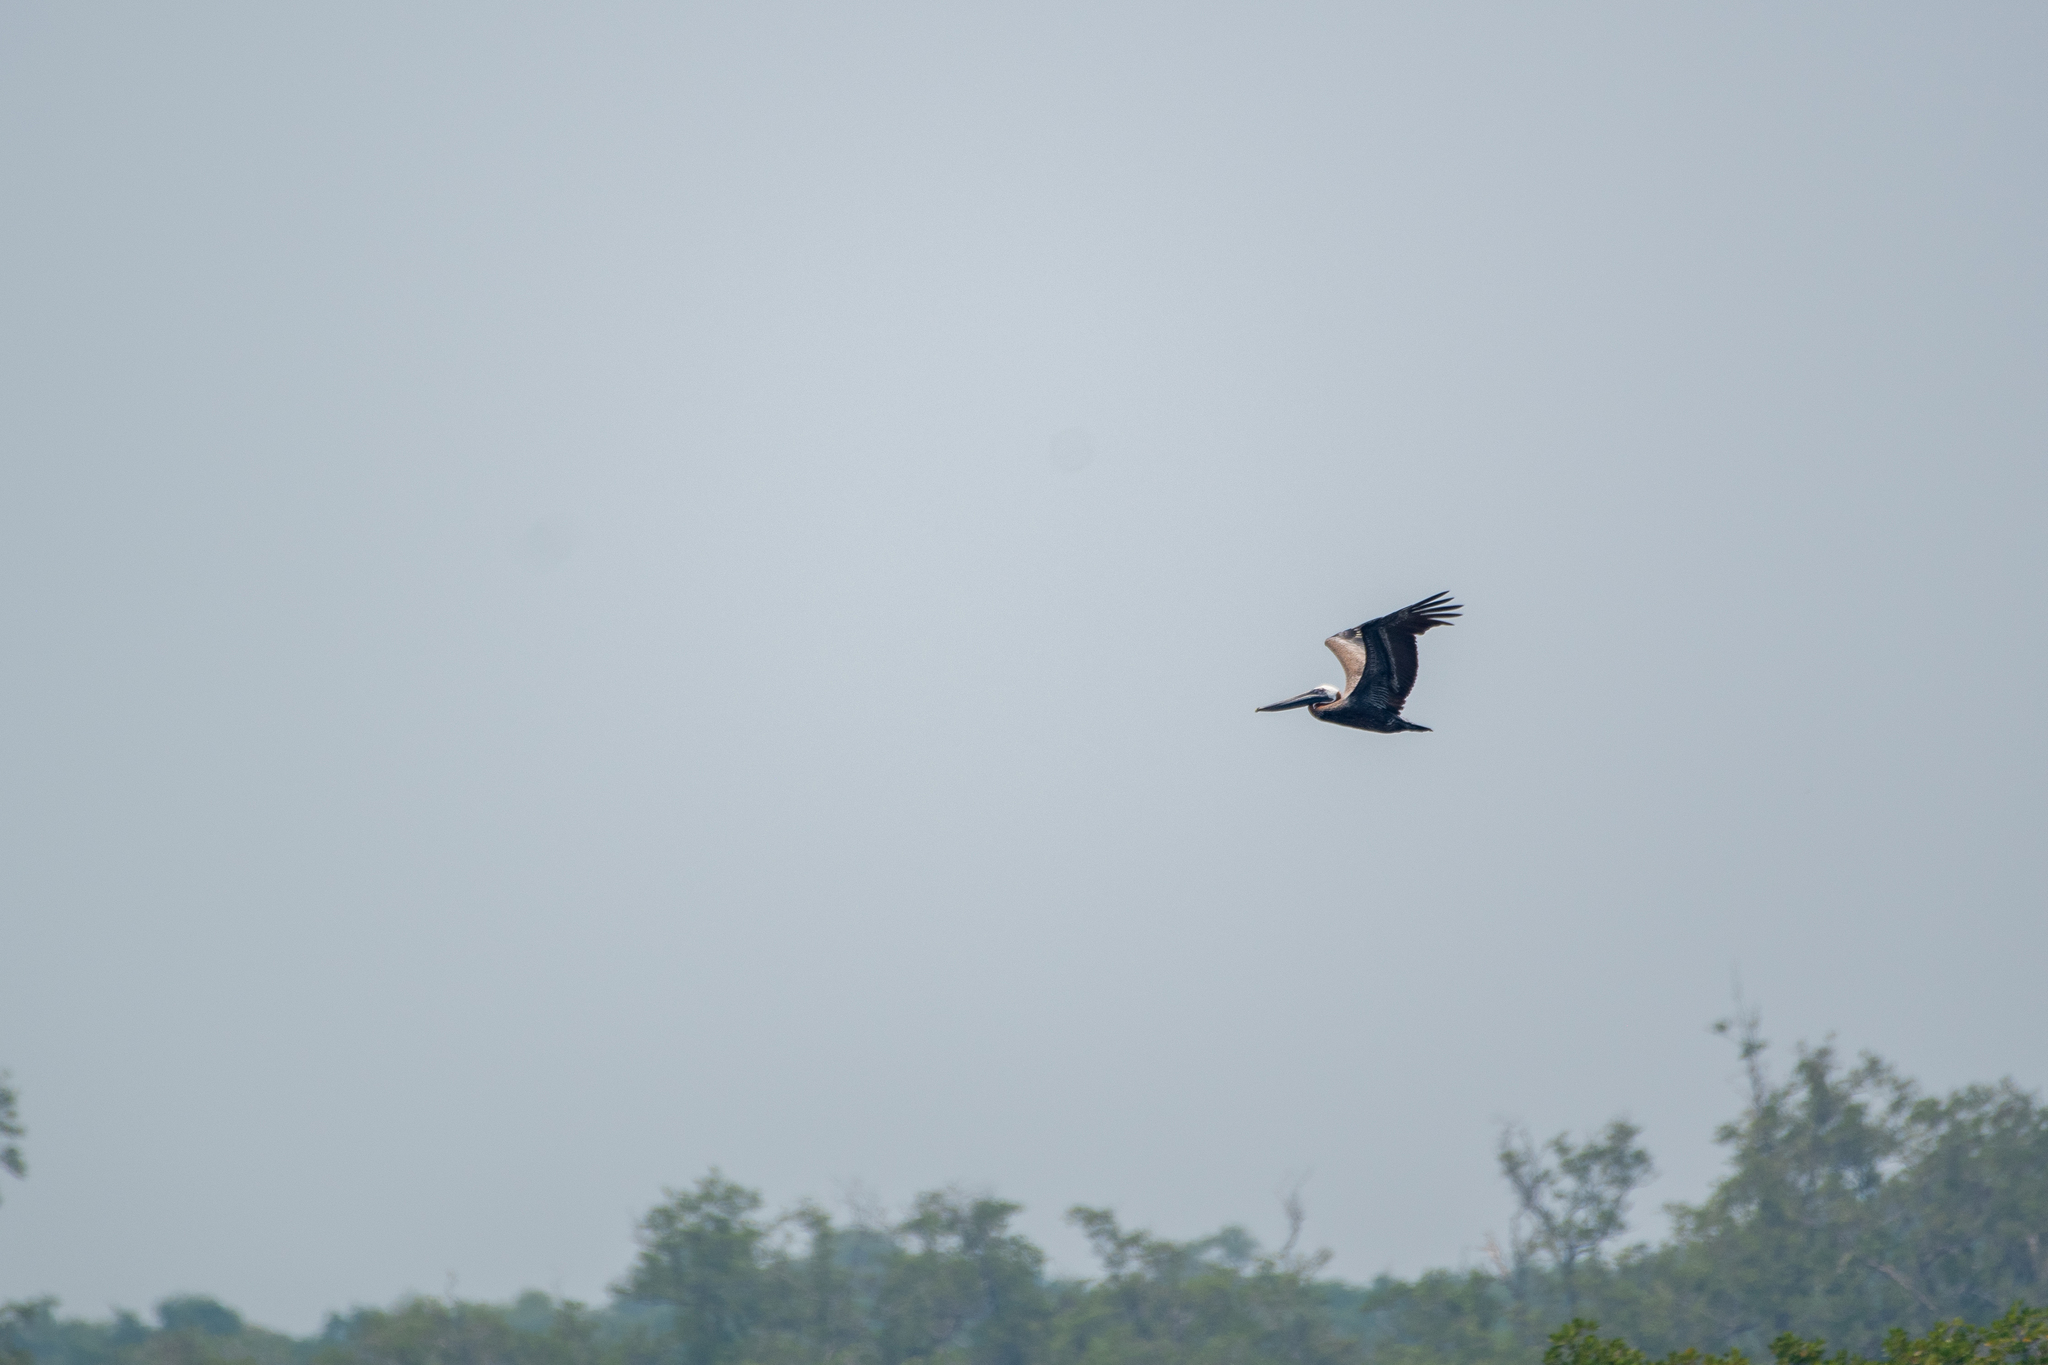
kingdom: Animalia
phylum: Chordata
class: Aves
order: Pelecaniformes
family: Pelecanidae
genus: Pelecanus
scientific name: Pelecanus occidentalis
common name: Brown pelican
